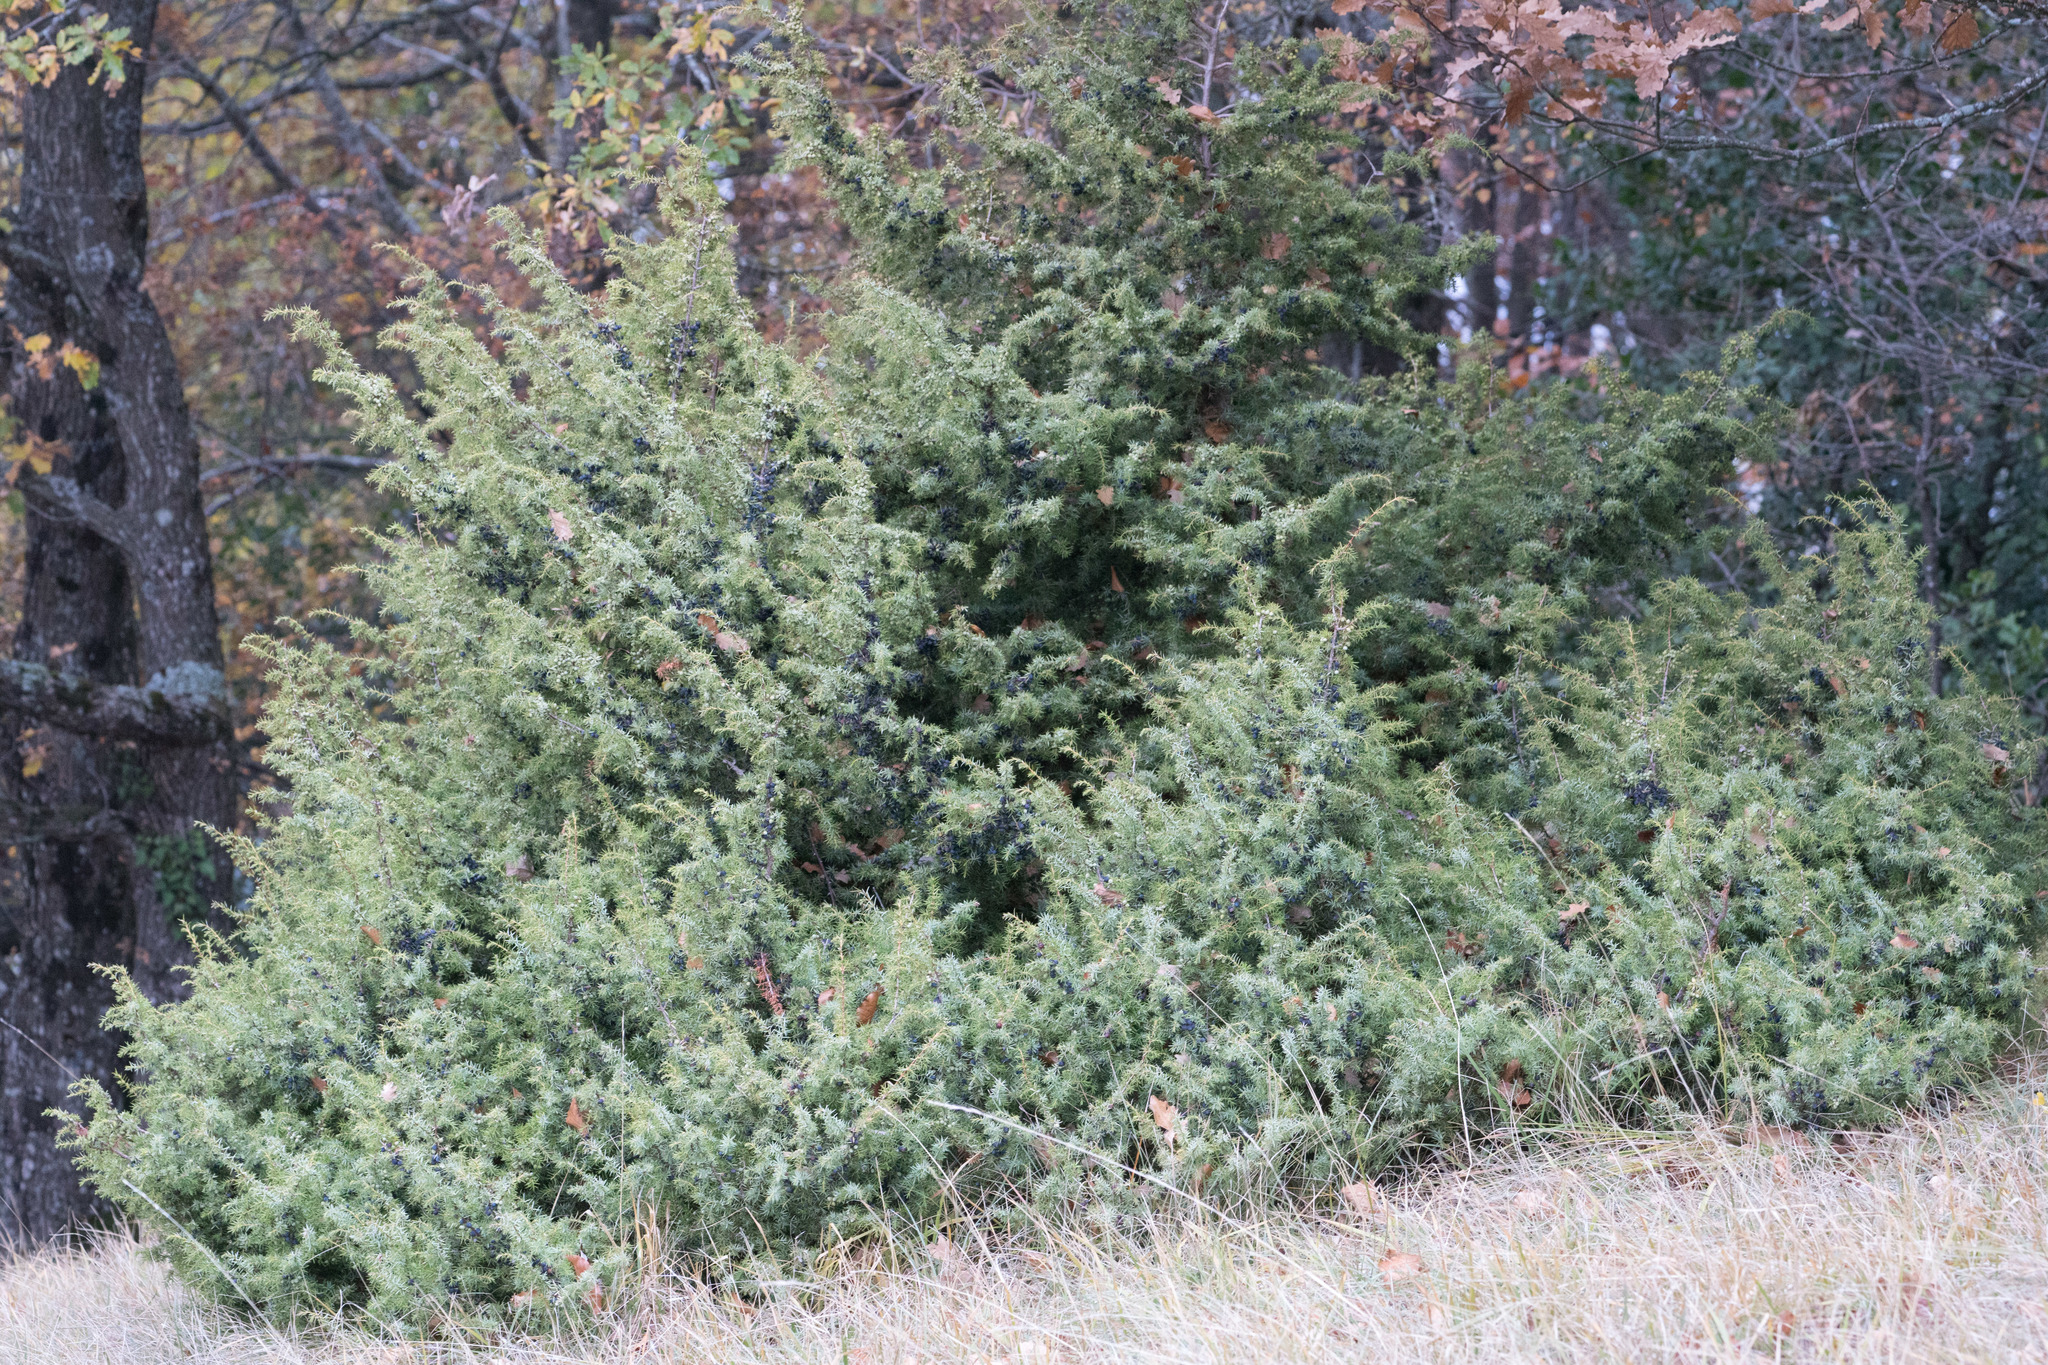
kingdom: Plantae
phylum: Tracheophyta
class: Pinopsida
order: Pinales
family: Cupressaceae
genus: Juniperus
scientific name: Juniperus communis
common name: Common juniper
